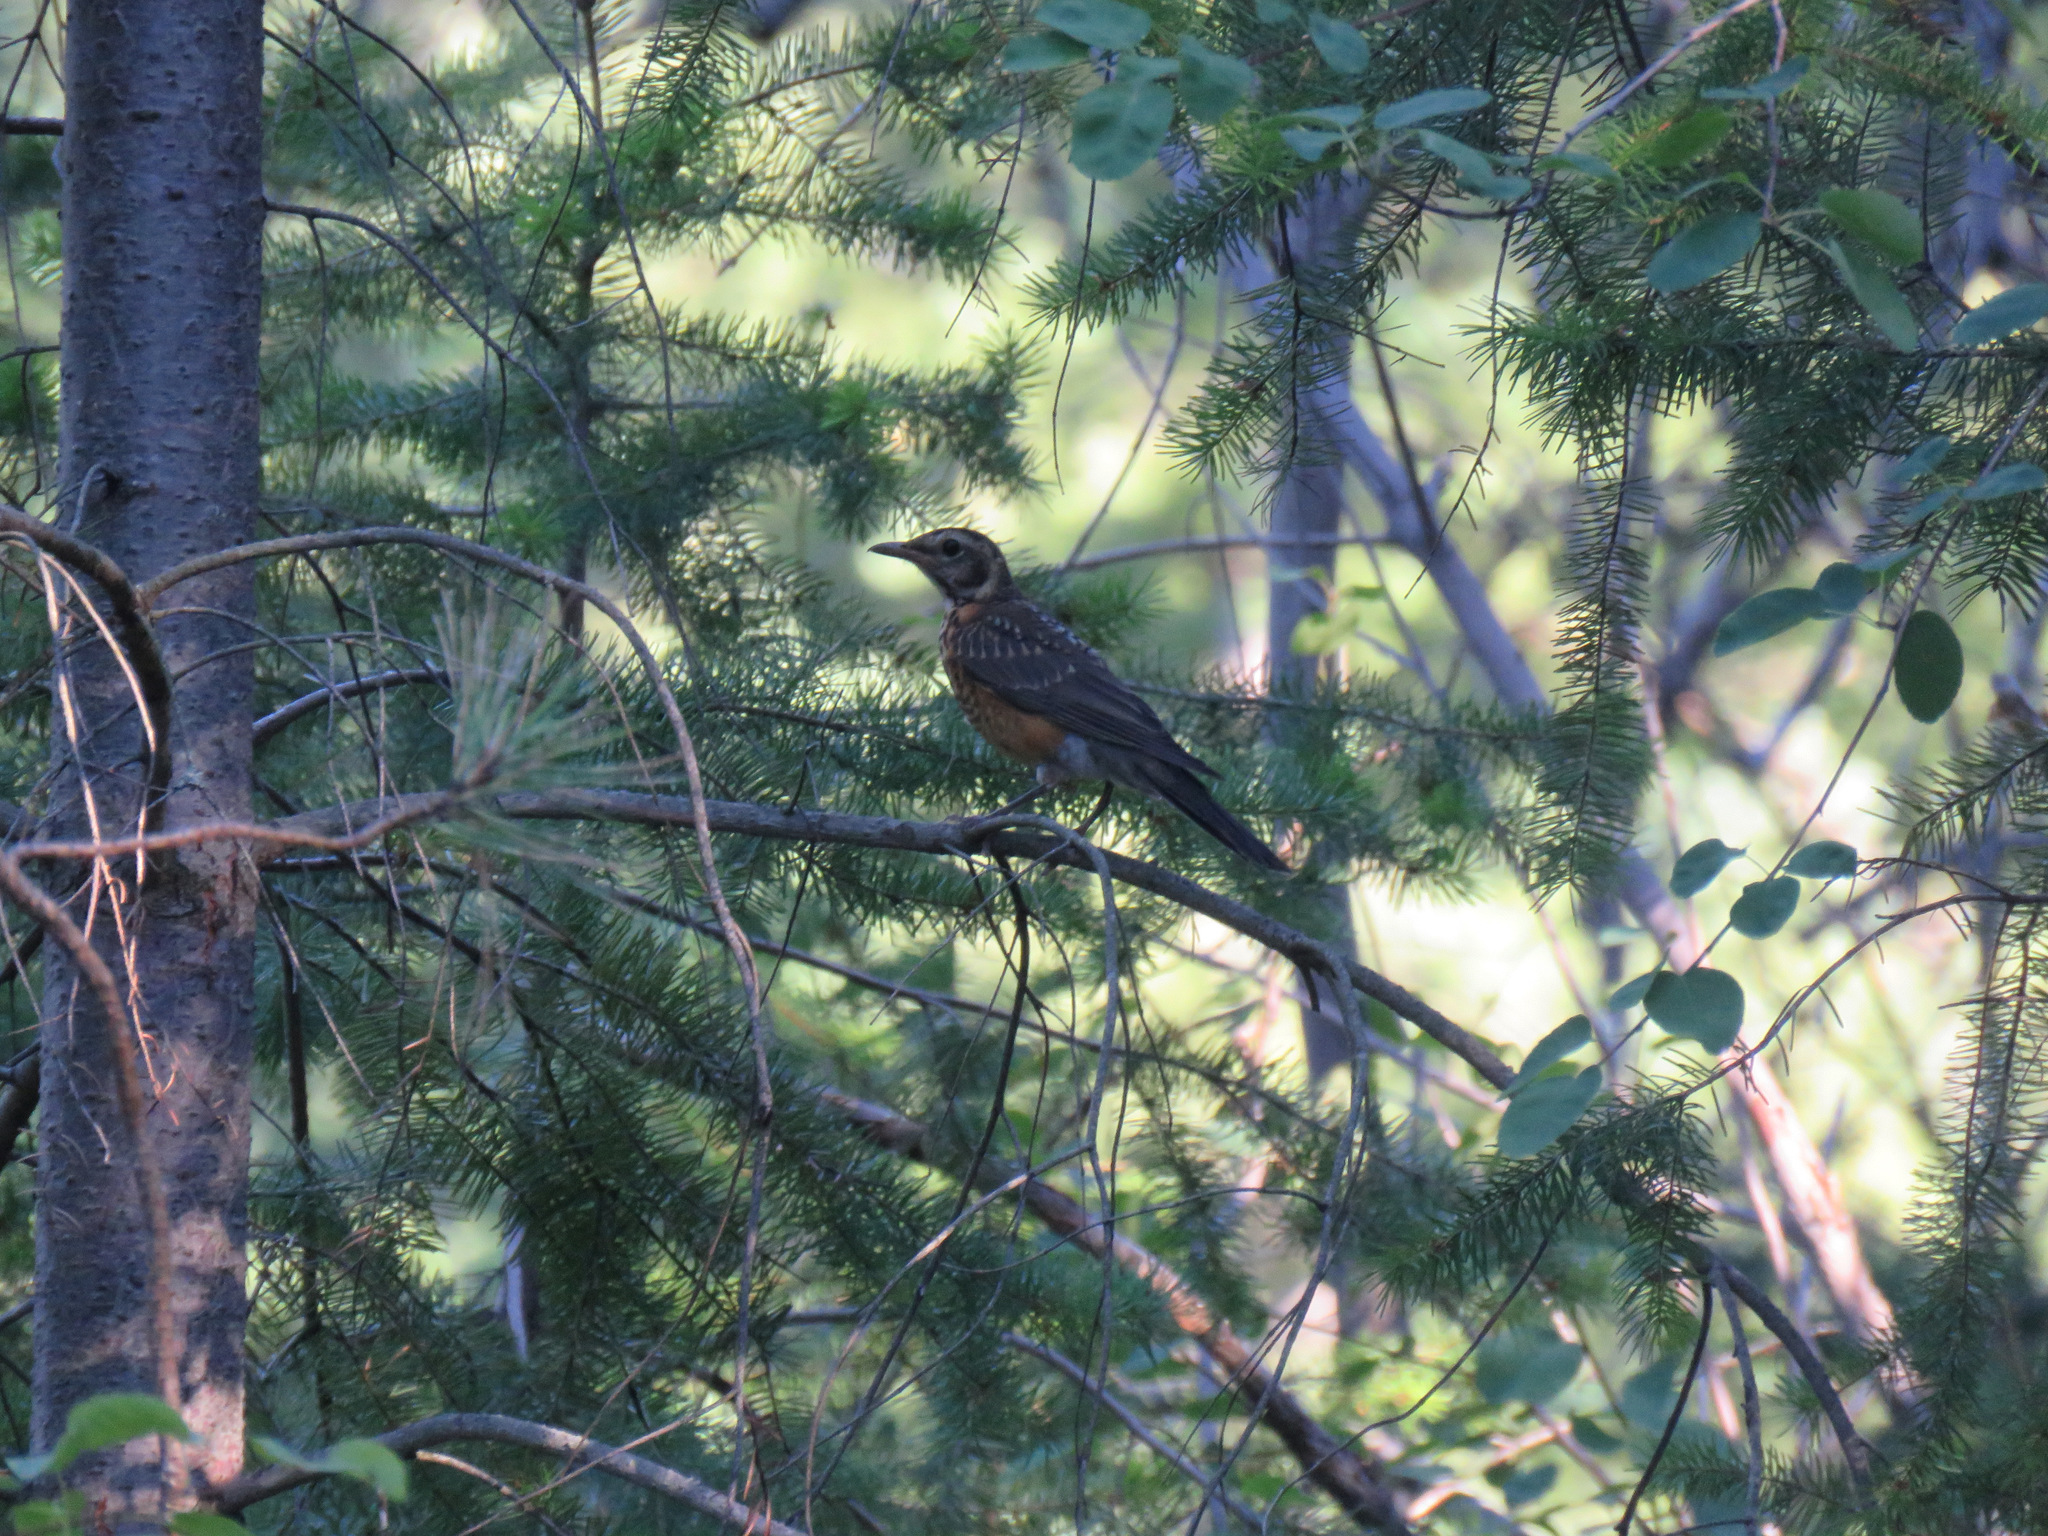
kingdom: Animalia
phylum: Chordata
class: Aves
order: Passeriformes
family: Turdidae
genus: Turdus
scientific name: Turdus migratorius
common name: American robin
